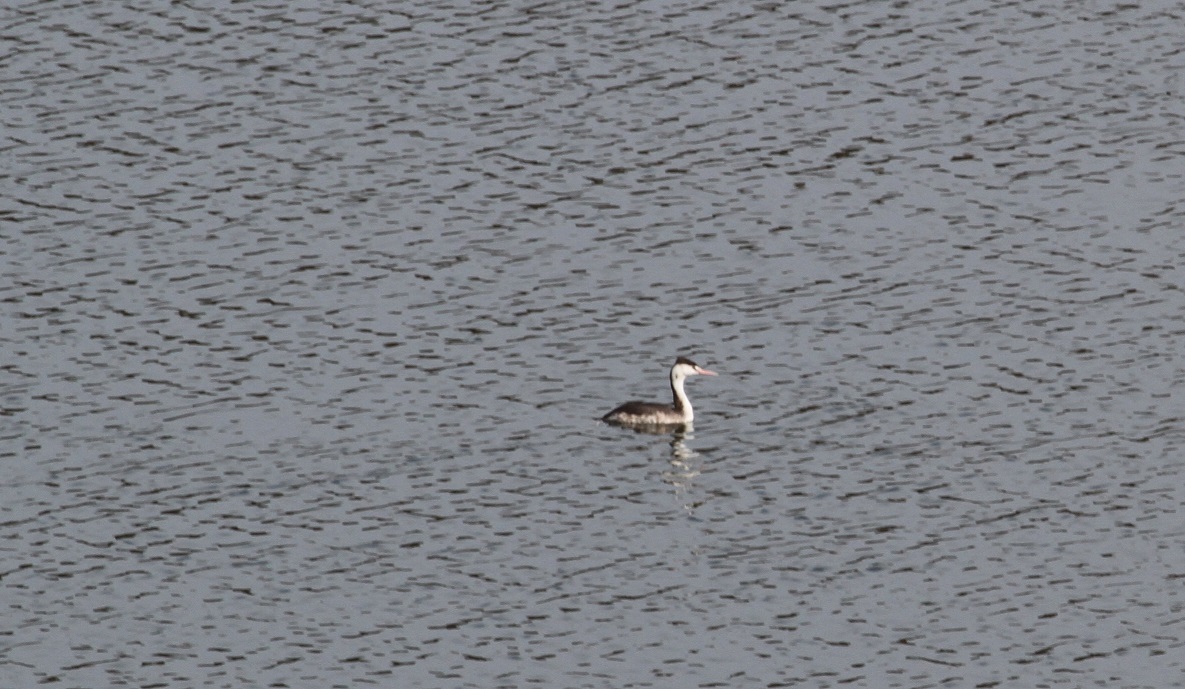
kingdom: Animalia
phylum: Chordata
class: Aves
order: Podicipediformes
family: Podicipedidae
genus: Podiceps
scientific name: Podiceps cristatus
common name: Great crested grebe
